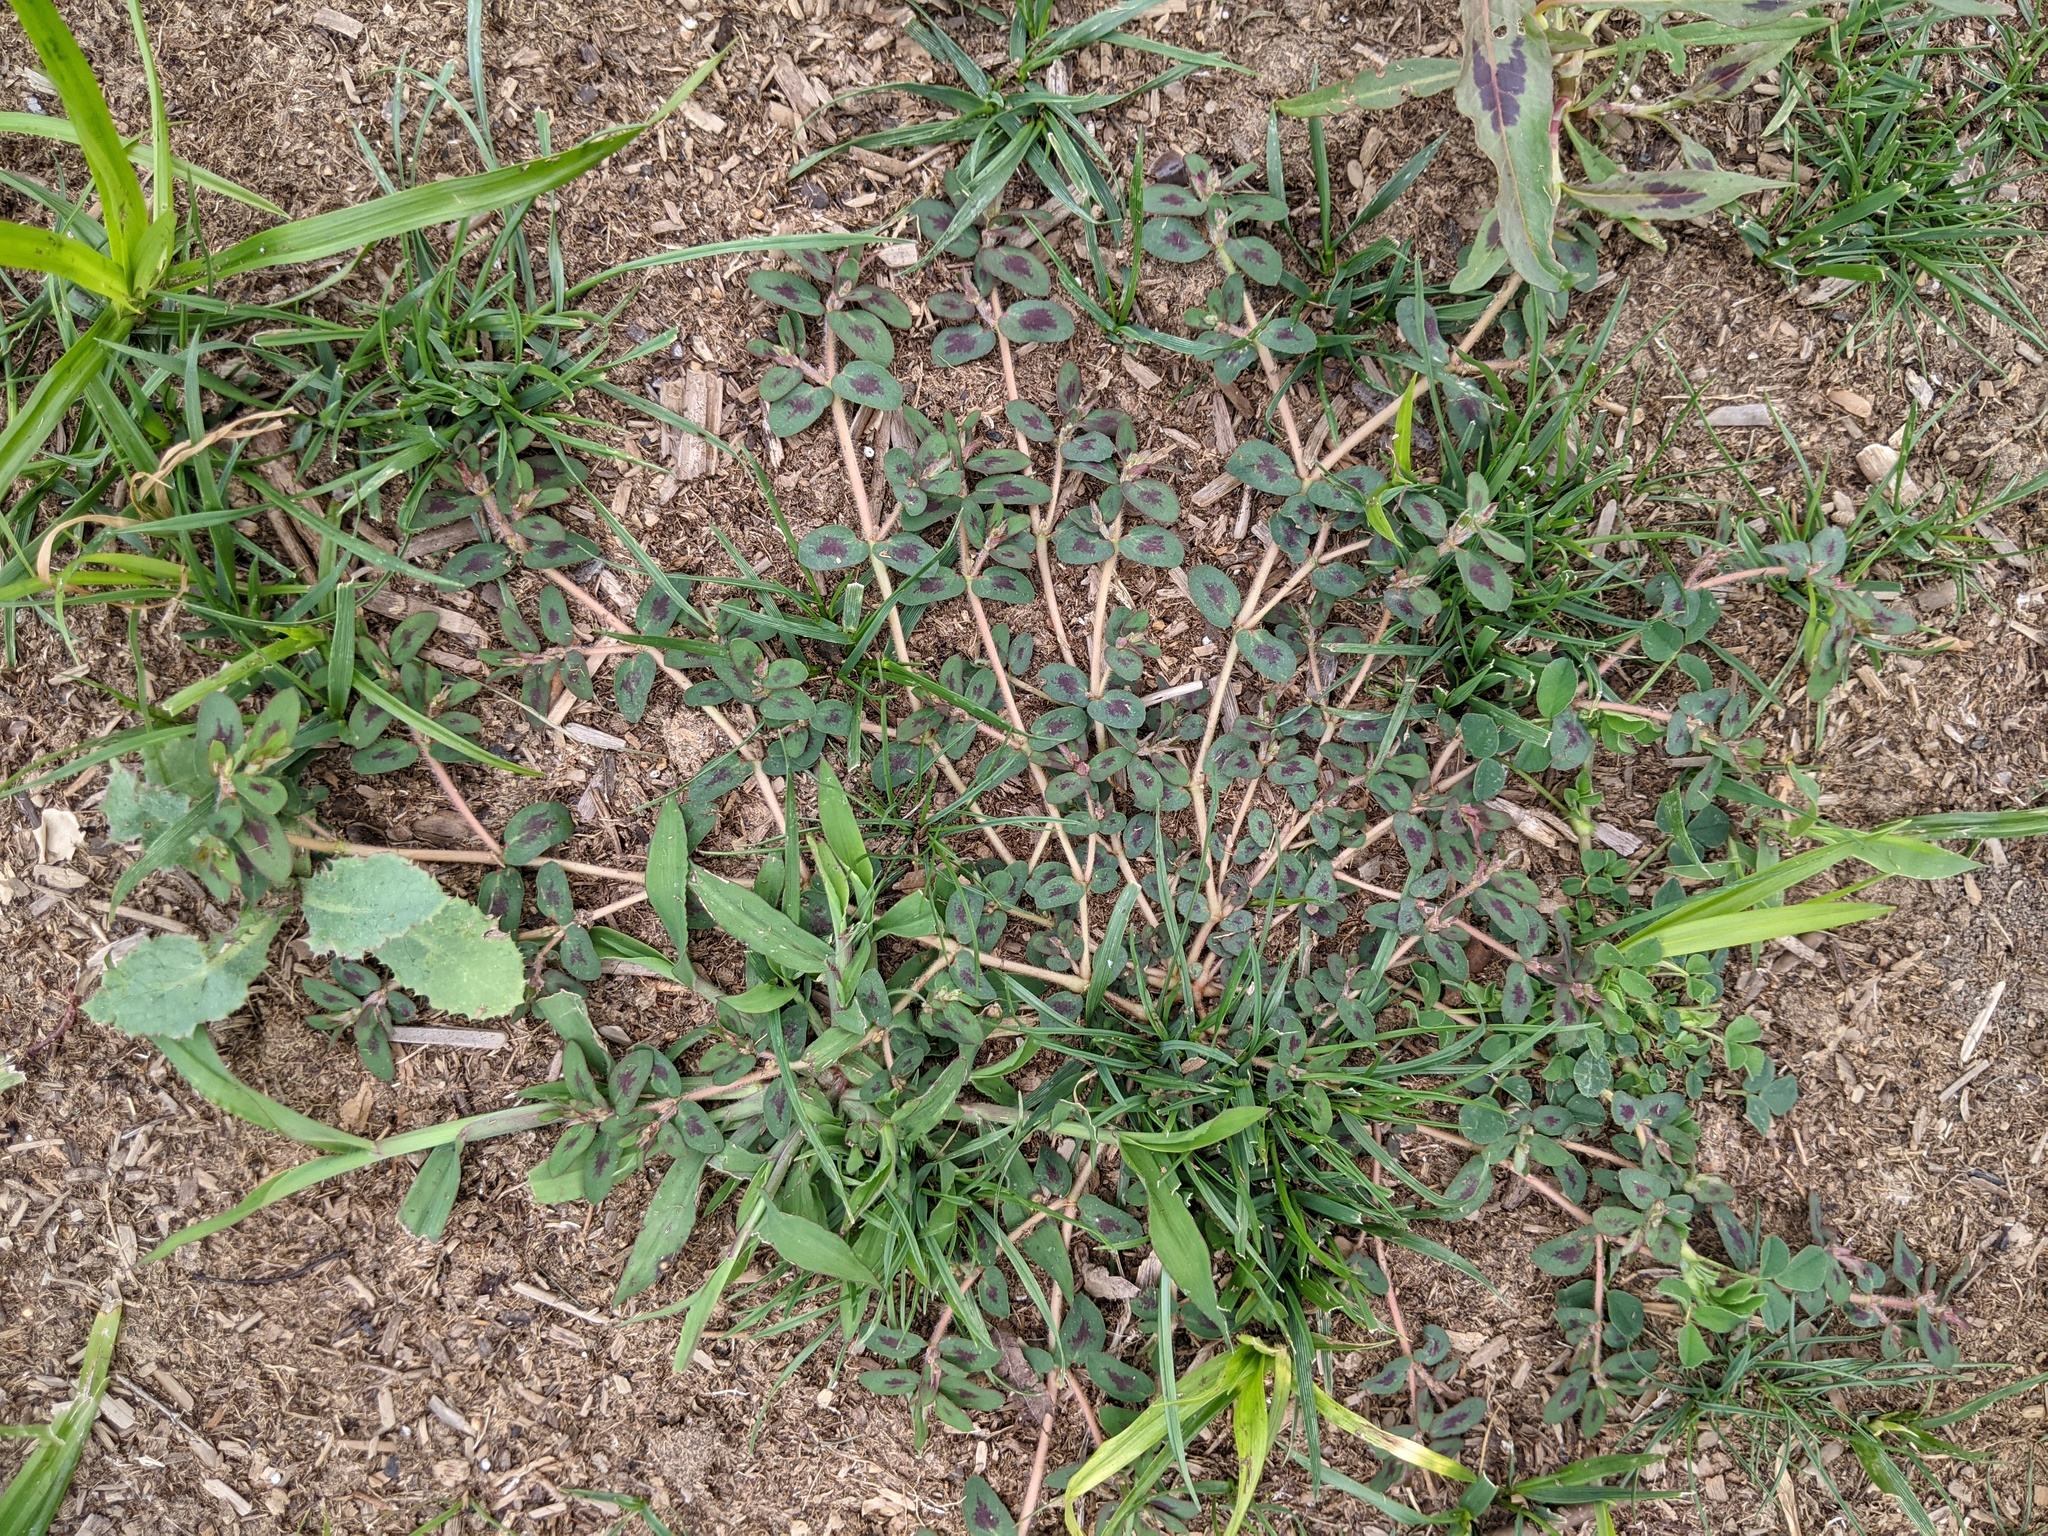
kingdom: Plantae
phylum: Tracheophyta
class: Magnoliopsida
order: Malpighiales
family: Euphorbiaceae
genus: Euphorbia
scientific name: Euphorbia maculata
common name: Spotted spurge
